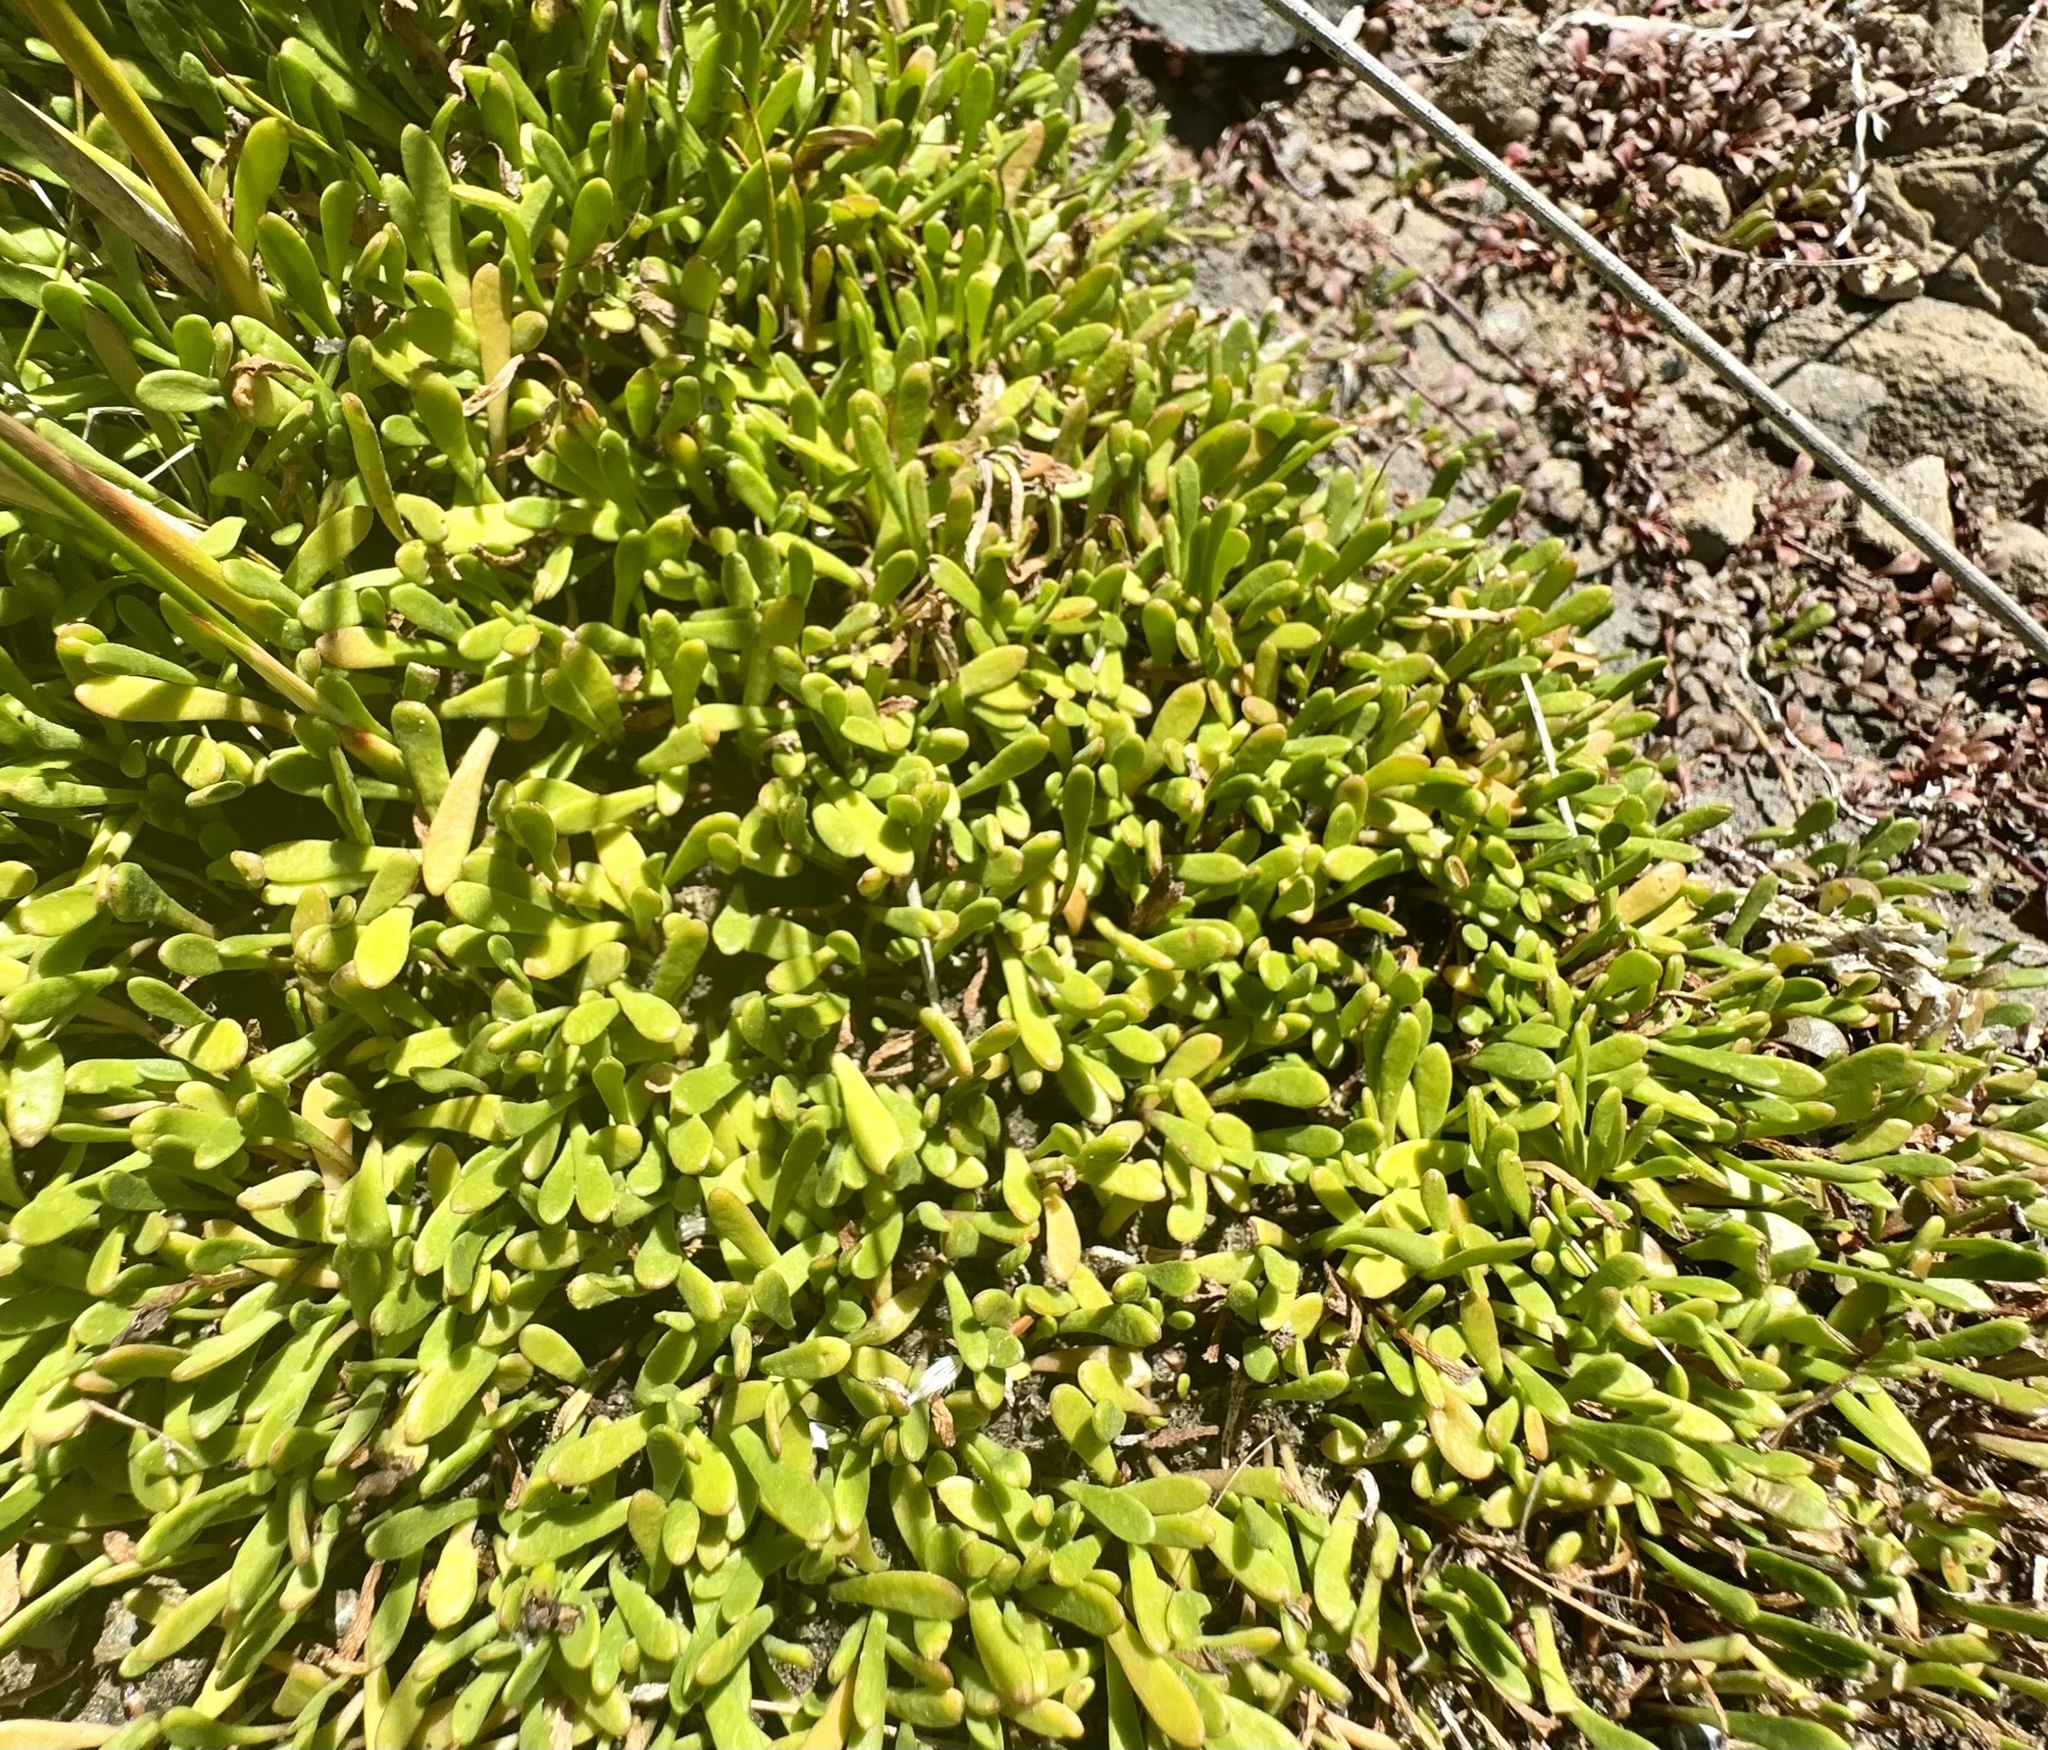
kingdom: Plantae
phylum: Tracheophyta
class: Magnoliopsida
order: Asterales
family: Goodeniaceae
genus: Goodenia
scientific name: Goodenia radicans
